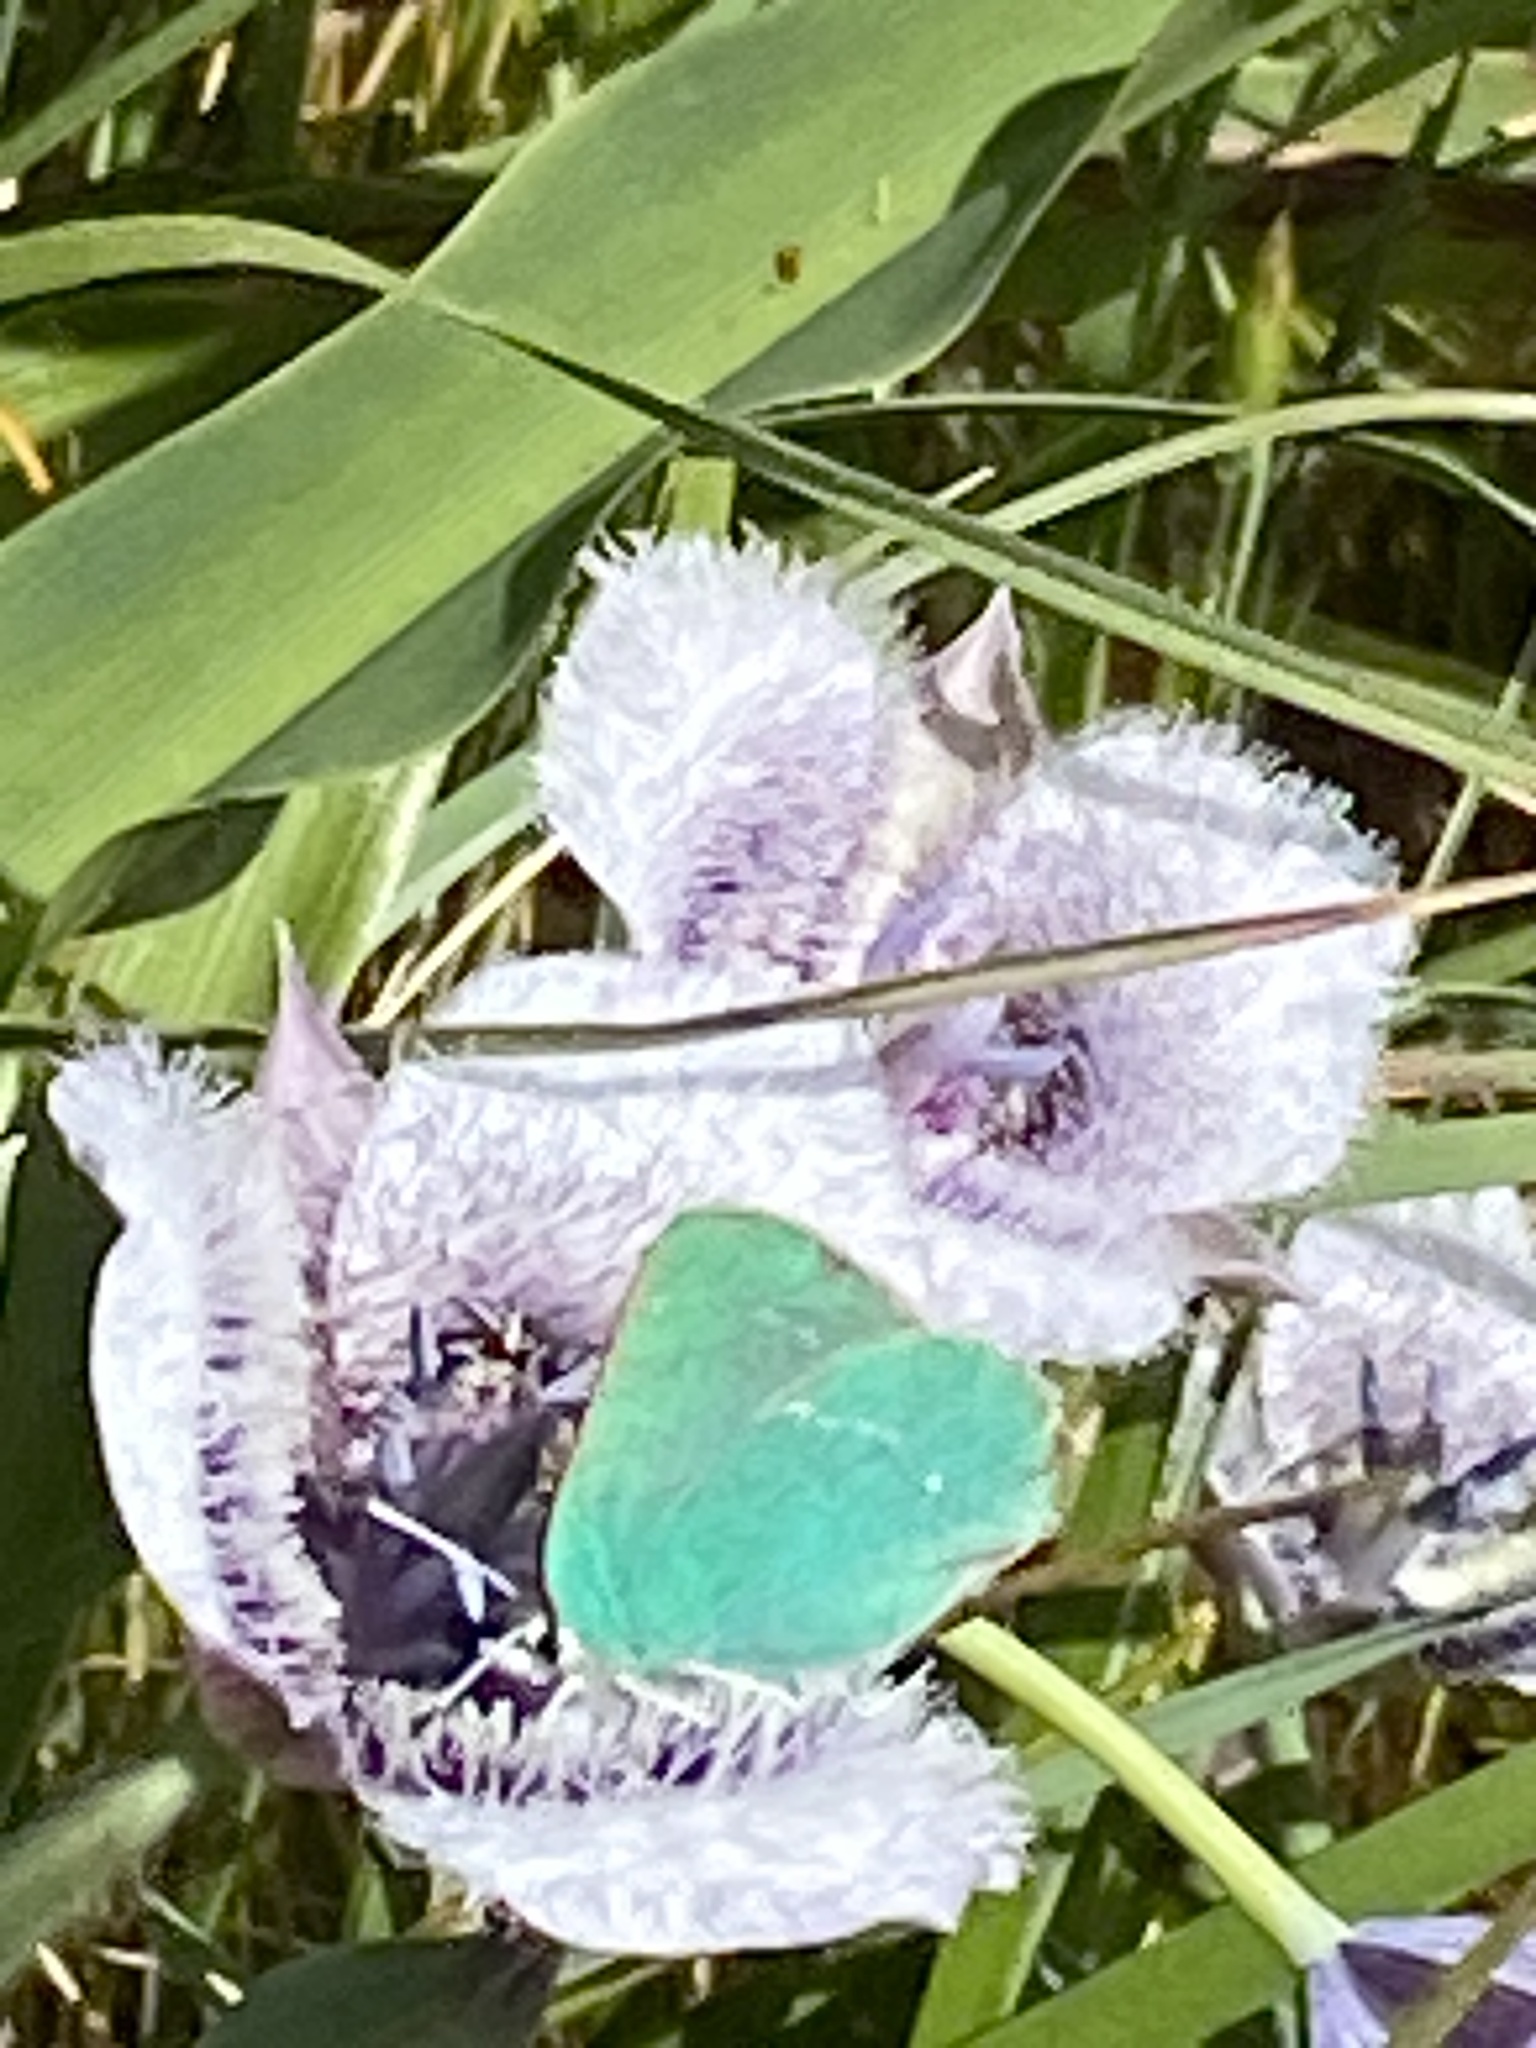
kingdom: Animalia
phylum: Arthropoda
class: Insecta
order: Lepidoptera
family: Lycaenidae
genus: Callophrys
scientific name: Callophrys viridis
